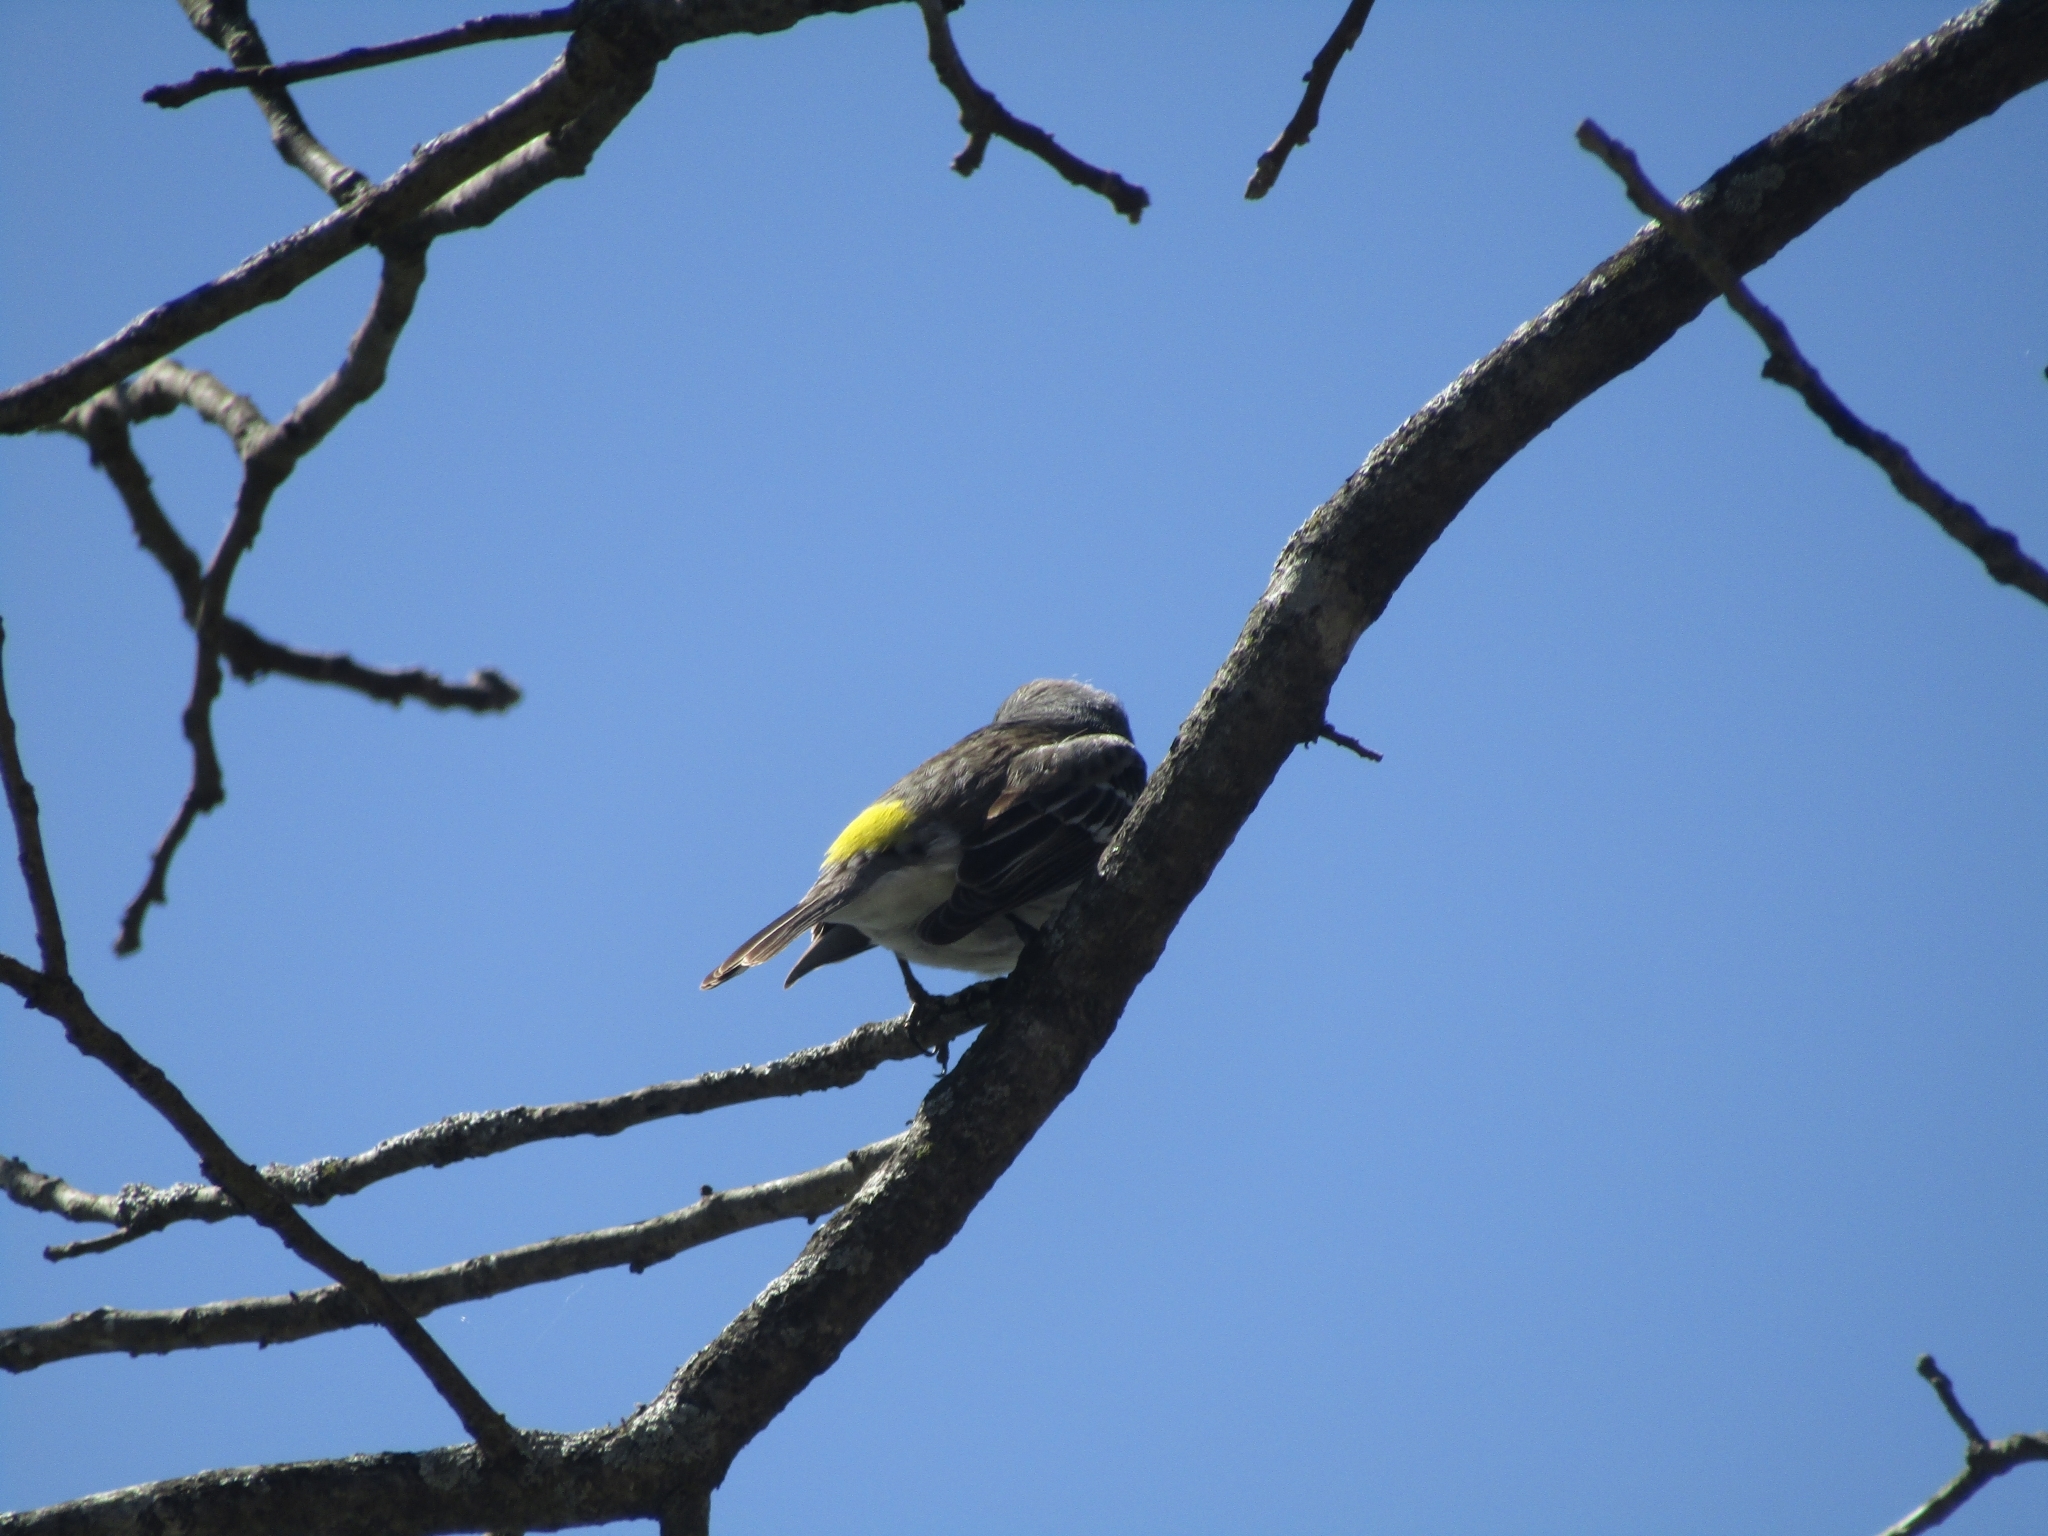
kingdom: Animalia
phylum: Chordata
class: Aves
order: Passeriformes
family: Parulidae
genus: Setophaga
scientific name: Setophaga coronata
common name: Myrtle warbler
